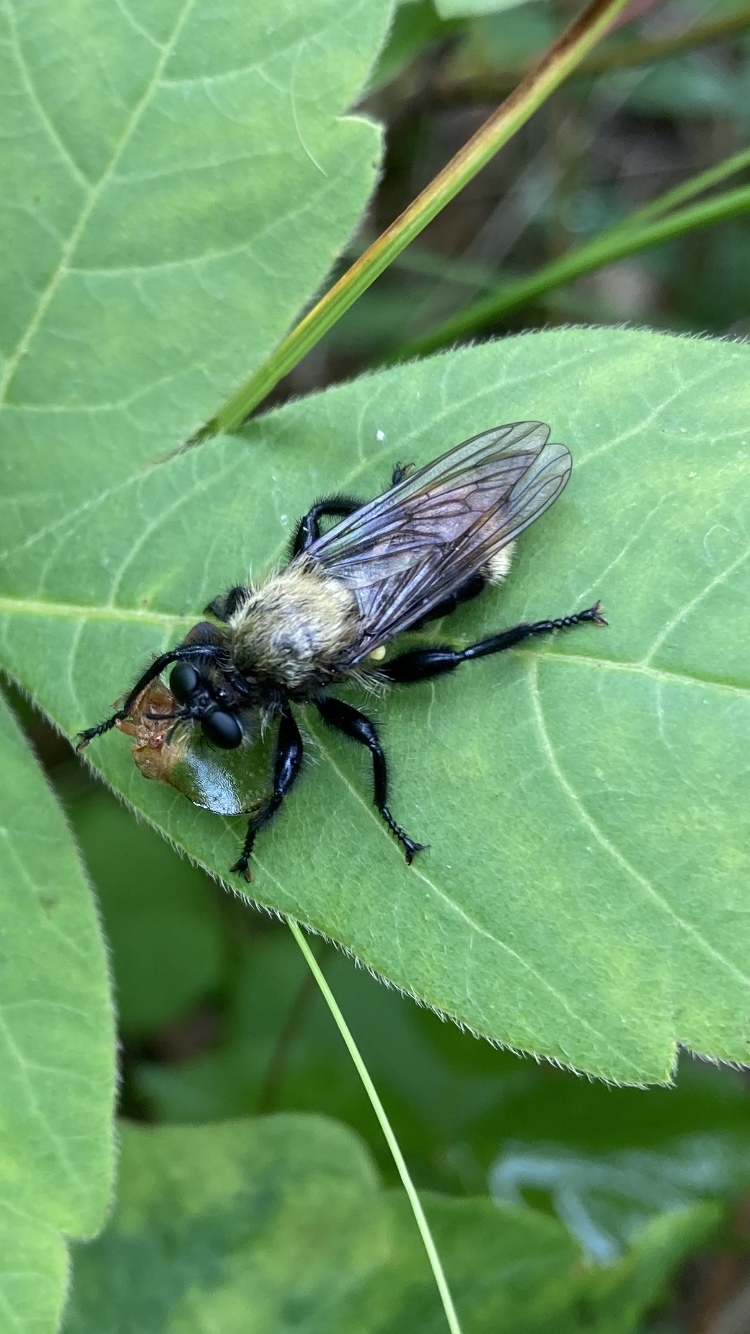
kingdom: Animalia
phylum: Arthropoda
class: Insecta
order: Diptera
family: Asilidae
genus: Laphria
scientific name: Laphria divisor
